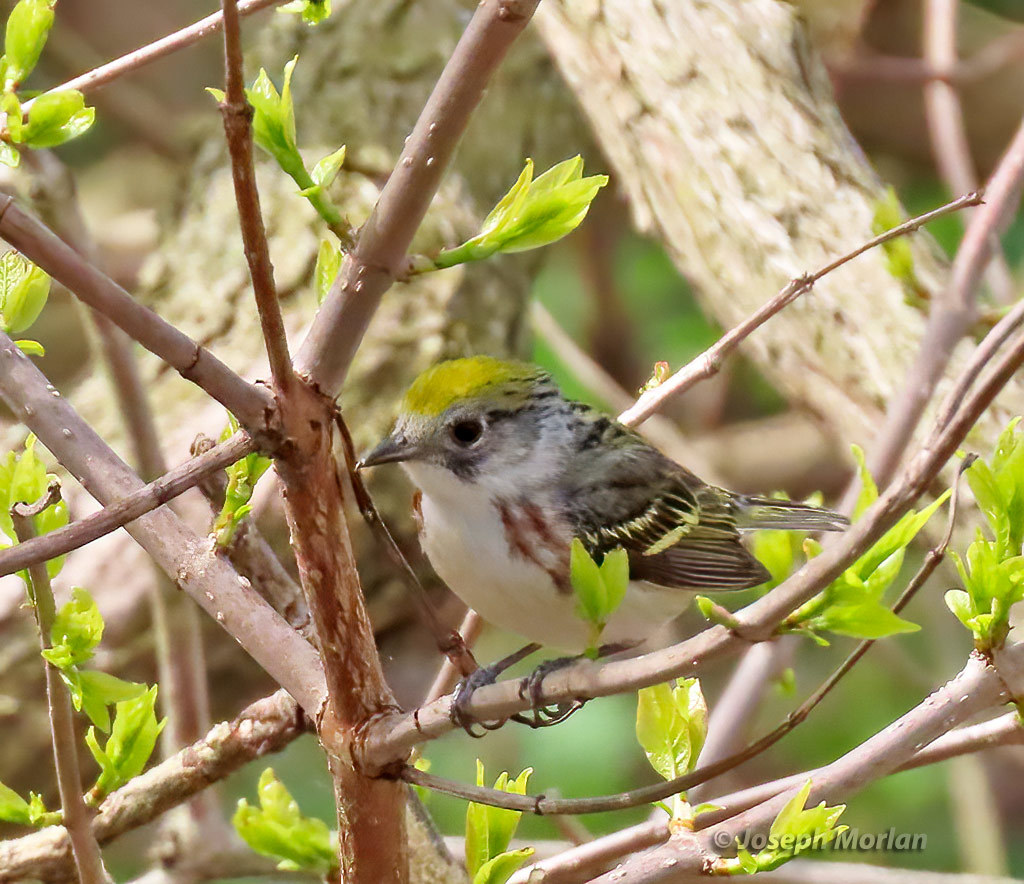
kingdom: Animalia
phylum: Chordata
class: Aves
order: Passeriformes
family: Parulidae
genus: Setophaga
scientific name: Setophaga pensylvanica
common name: Chestnut-sided warbler
